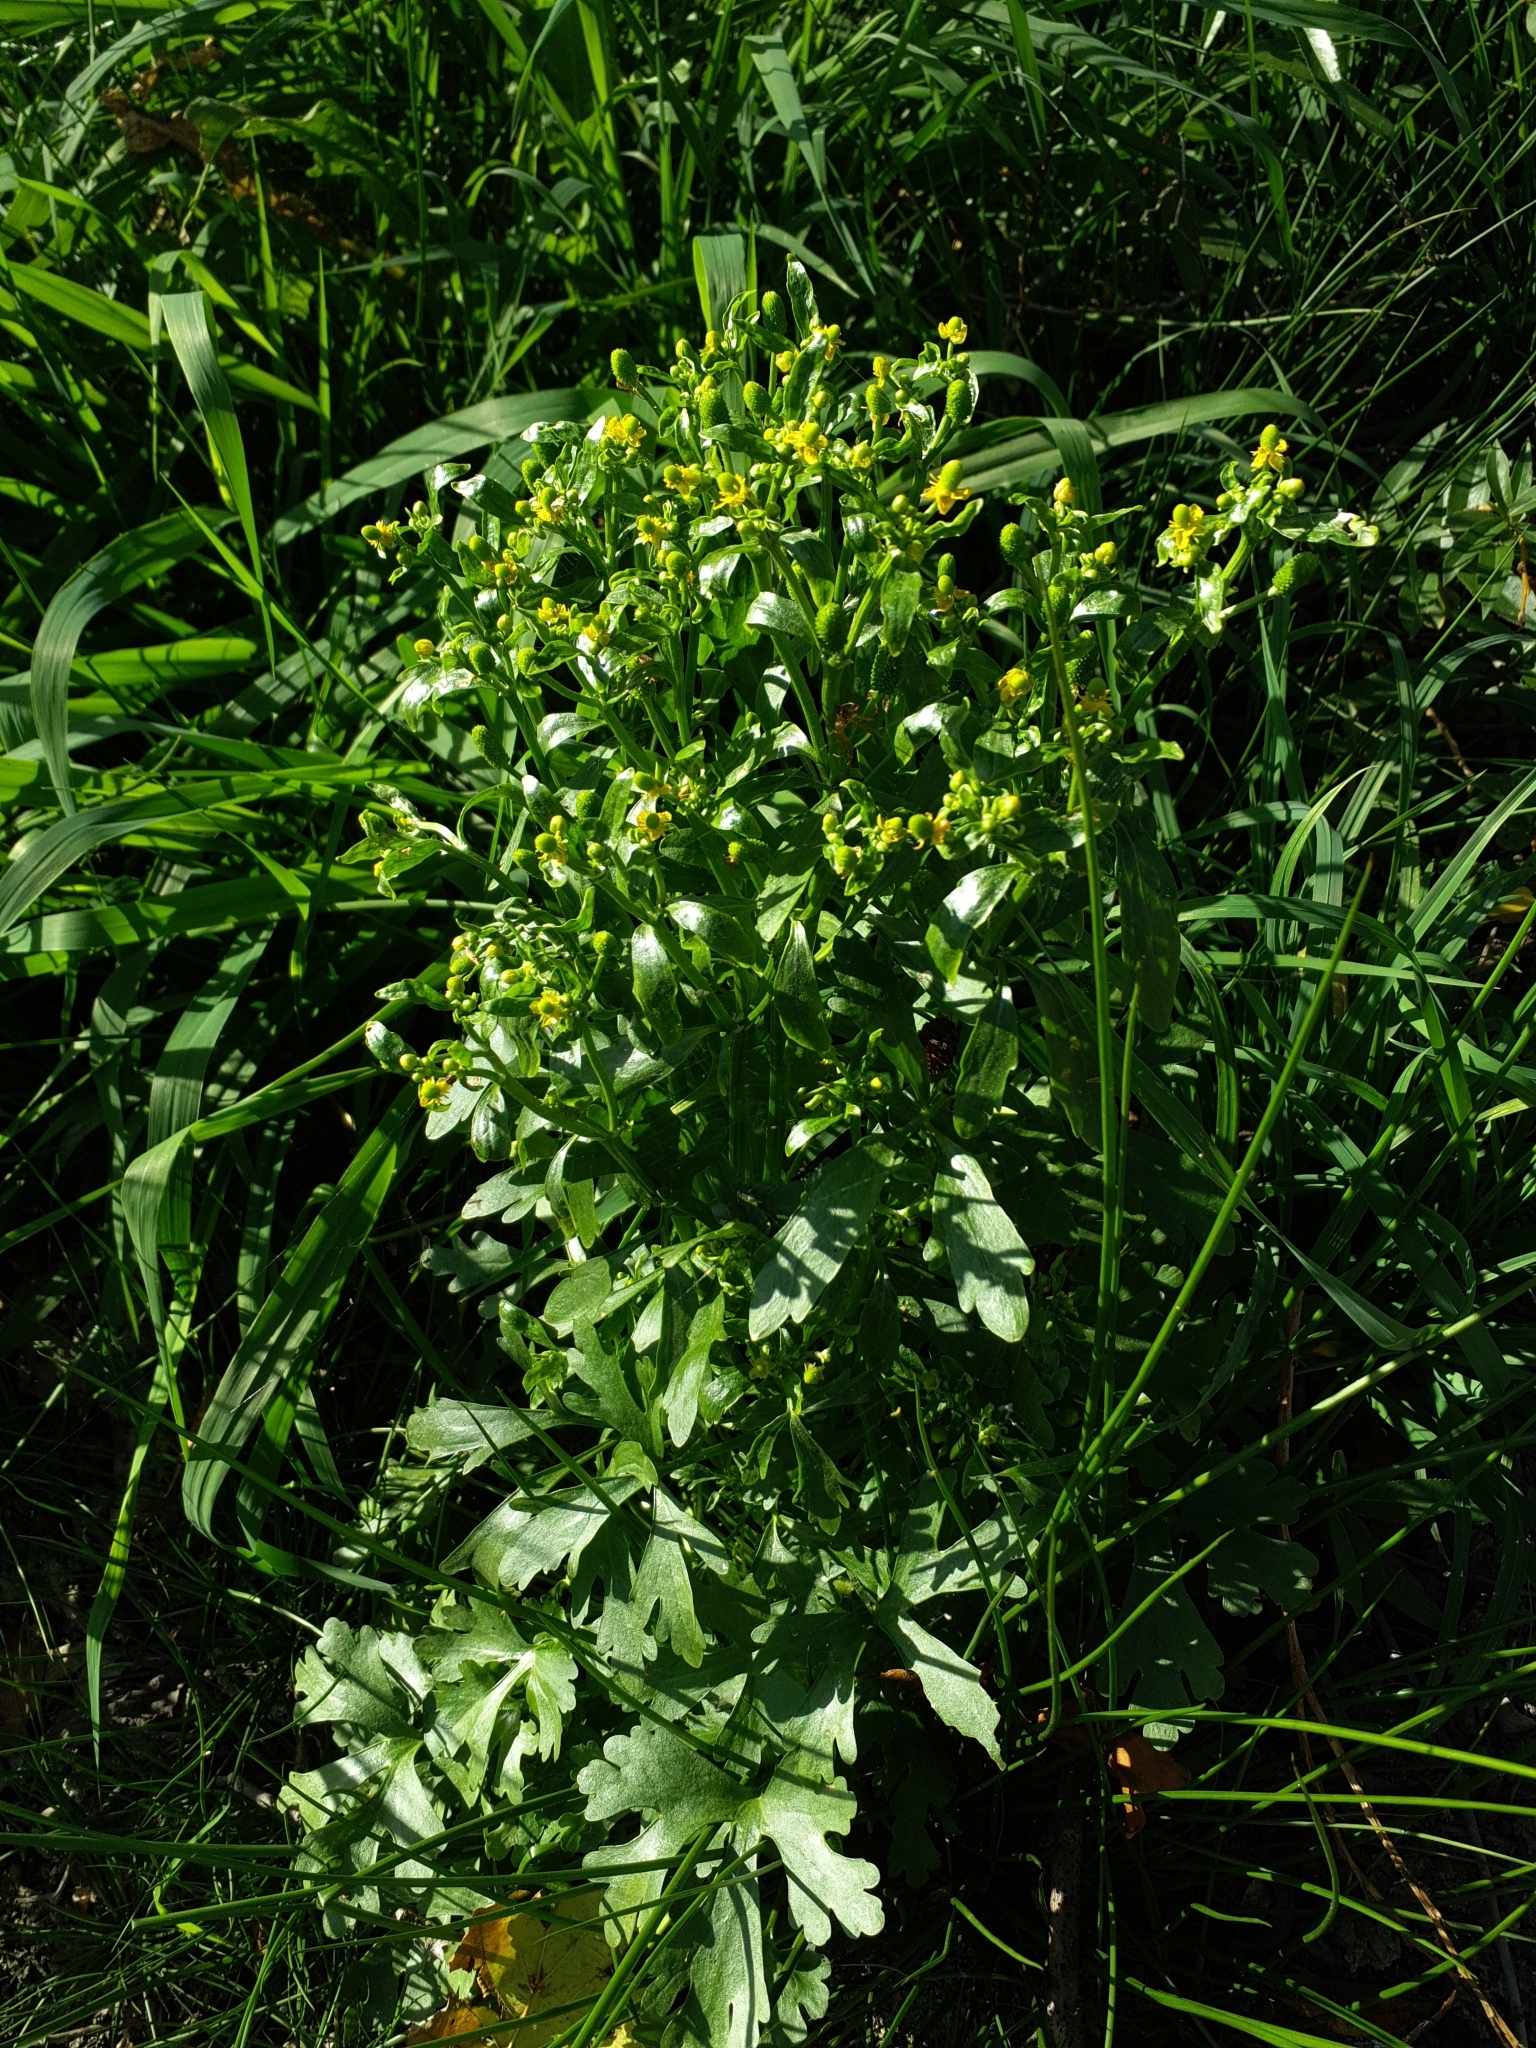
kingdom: Plantae
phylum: Tracheophyta
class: Magnoliopsida
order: Ranunculales
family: Ranunculaceae
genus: Ranunculus
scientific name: Ranunculus sceleratus
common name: Celery-leaved buttercup
